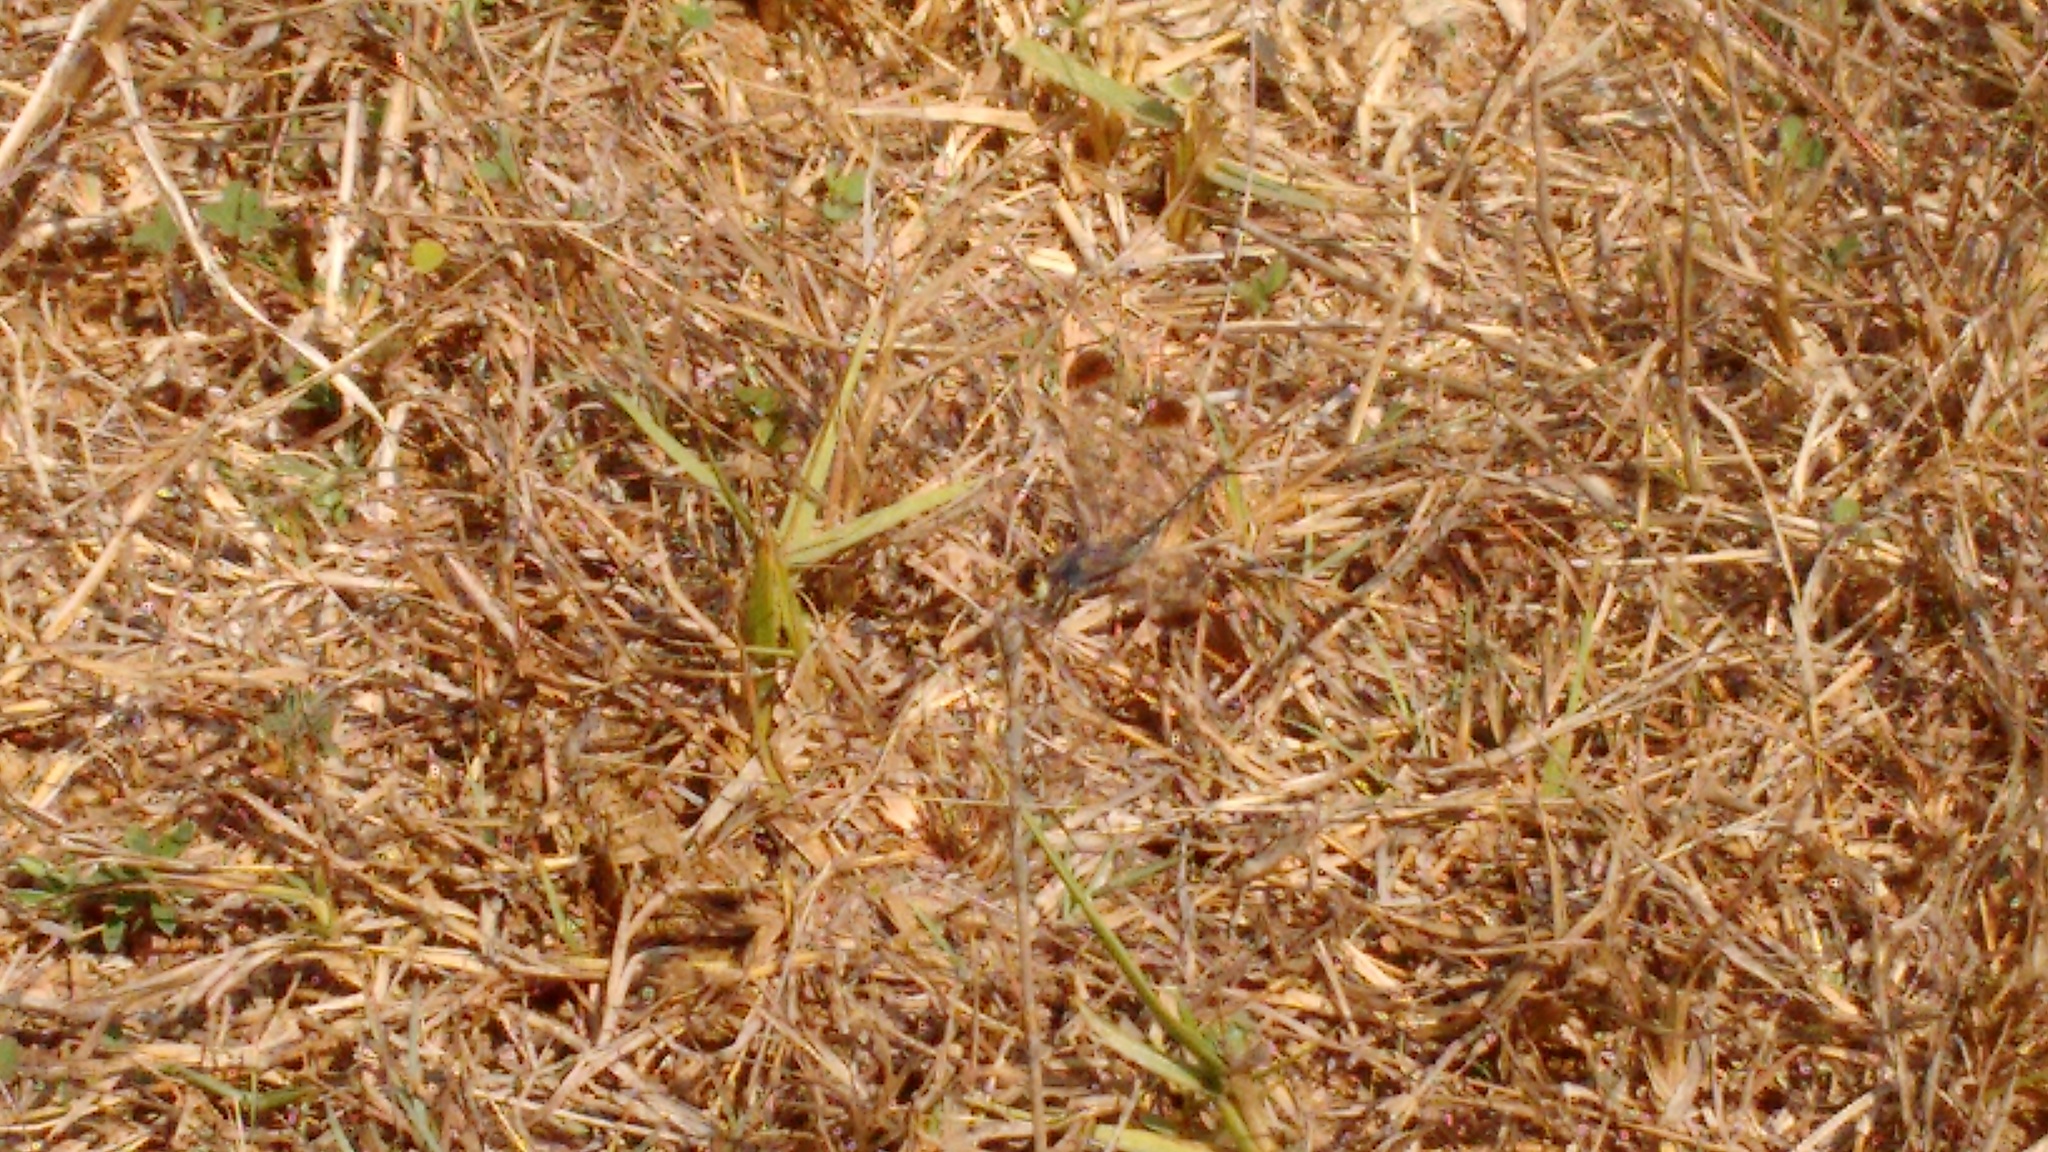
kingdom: Animalia
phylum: Arthropoda
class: Insecta
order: Odonata
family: Libellulidae
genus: Diplacodes
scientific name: Diplacodes nebulosa
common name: Black-tipped percher
